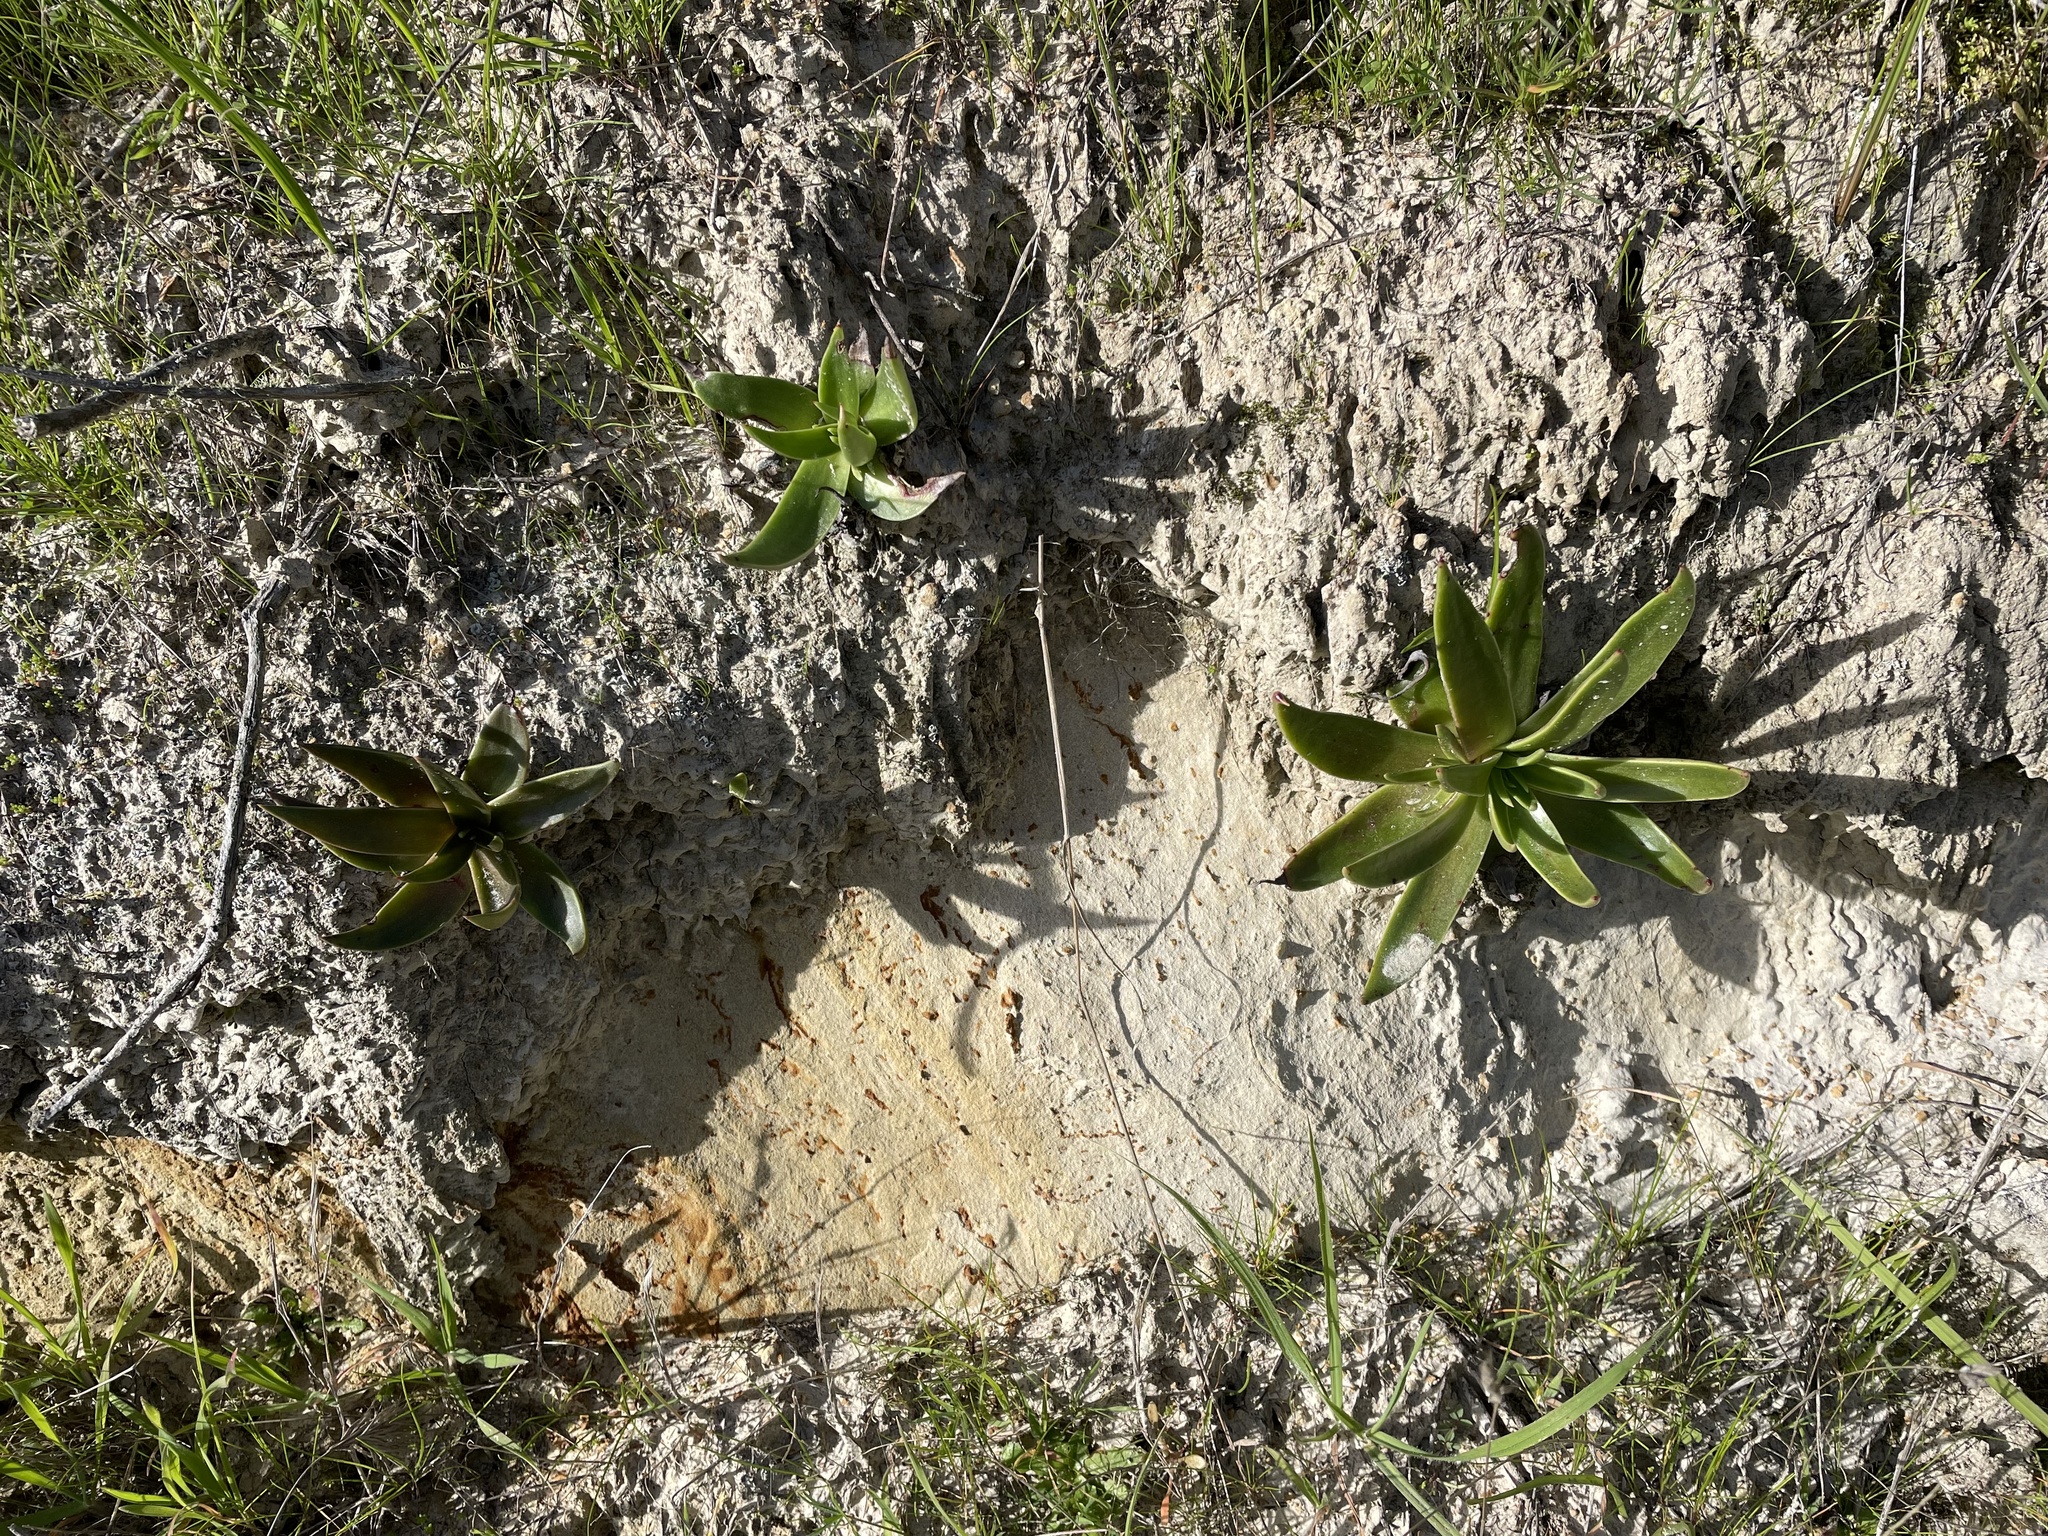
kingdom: Plantae
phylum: Tracheophyta
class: Magnoliopsida
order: Saxifragales
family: Crassulaceae
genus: Dudleya
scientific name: Dudleya lanceolata
